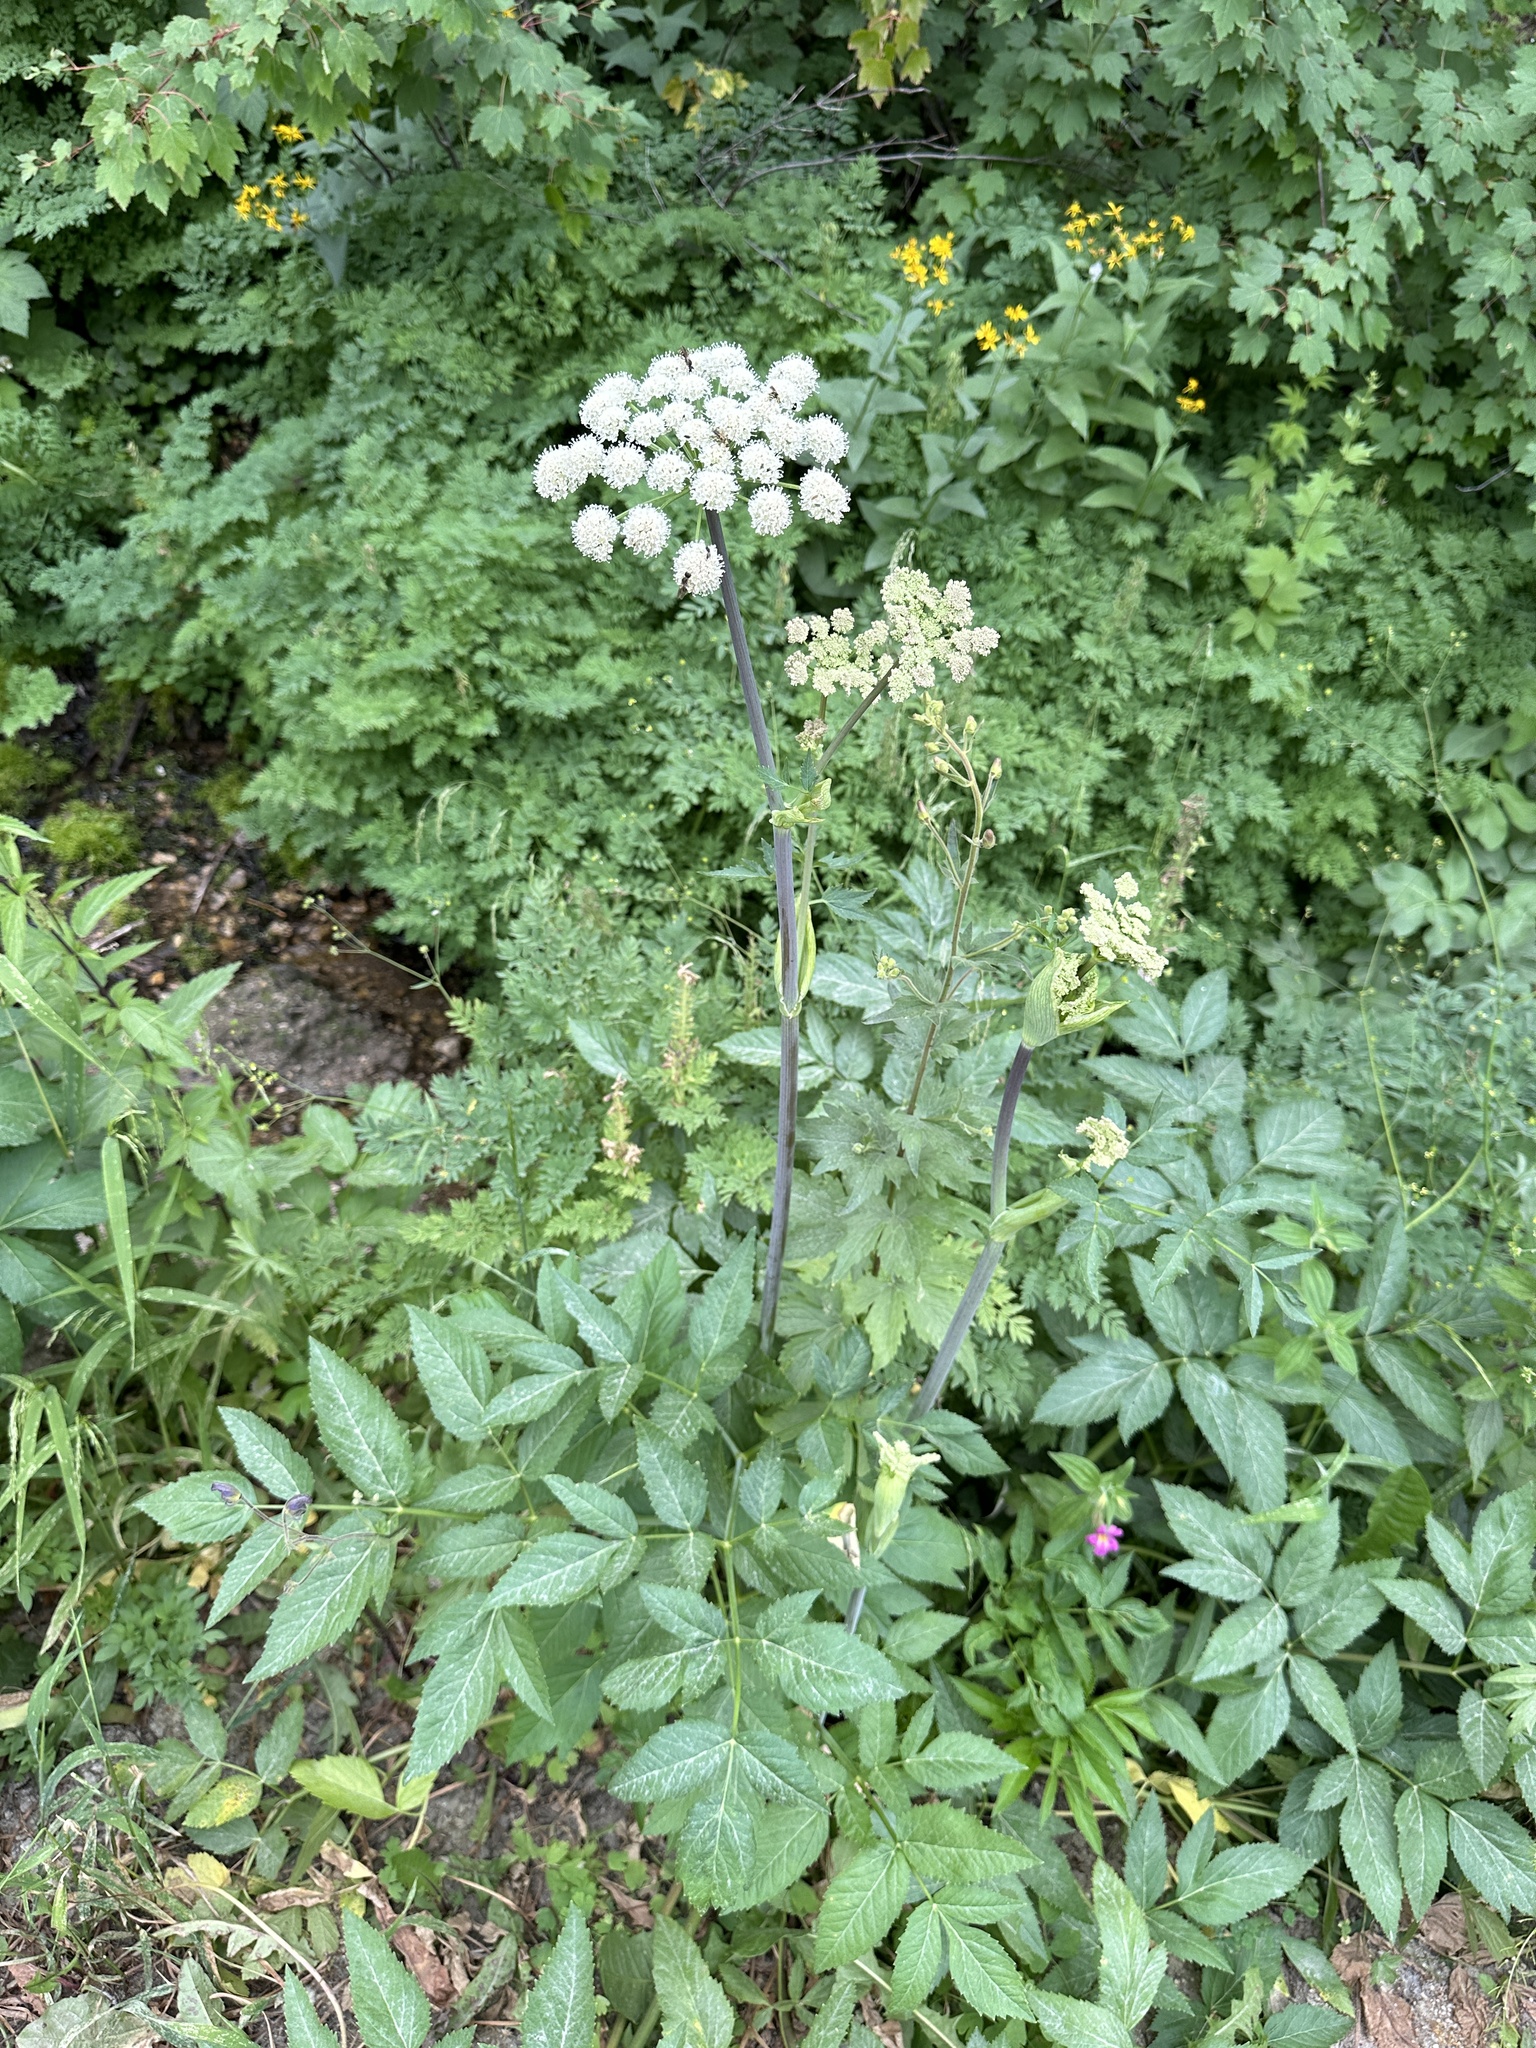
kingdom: Plantae
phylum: Tracheophyta
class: Magnoliopsida
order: Apiales
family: Apiaceae
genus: Angelica
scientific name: Angelica arguta
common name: Lyall's angelica
